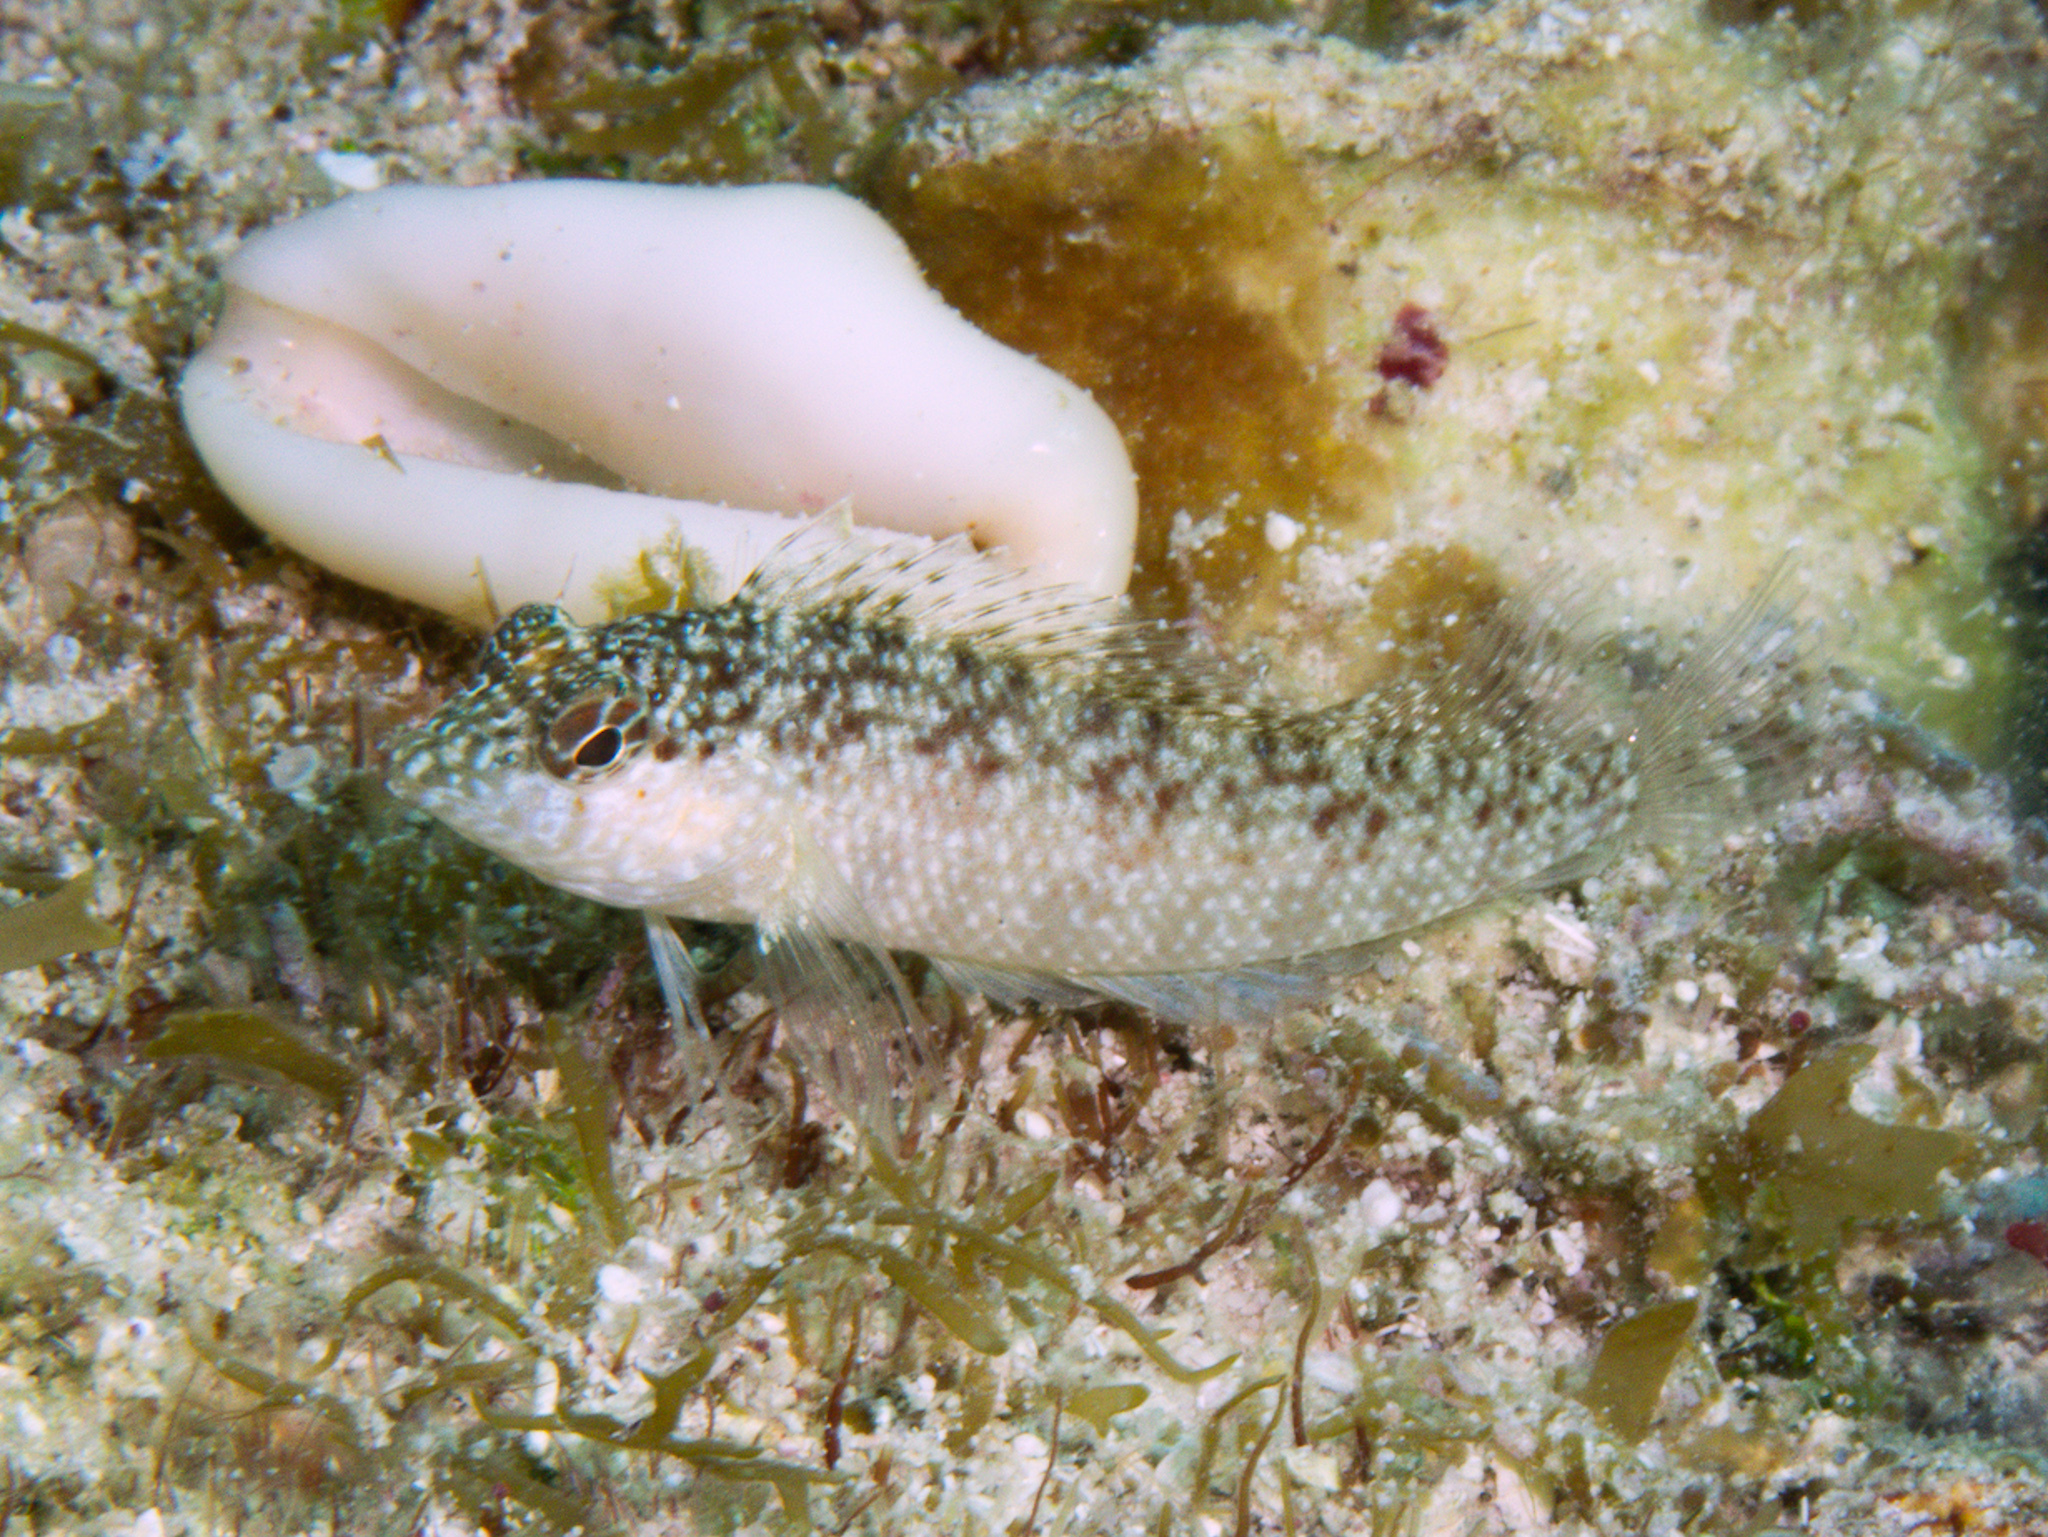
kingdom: Animalia
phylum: Chordata
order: Perciformes
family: Labrisomidae
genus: Malacoctenus
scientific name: Malacoctenus macropus
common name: Rosy blenny
